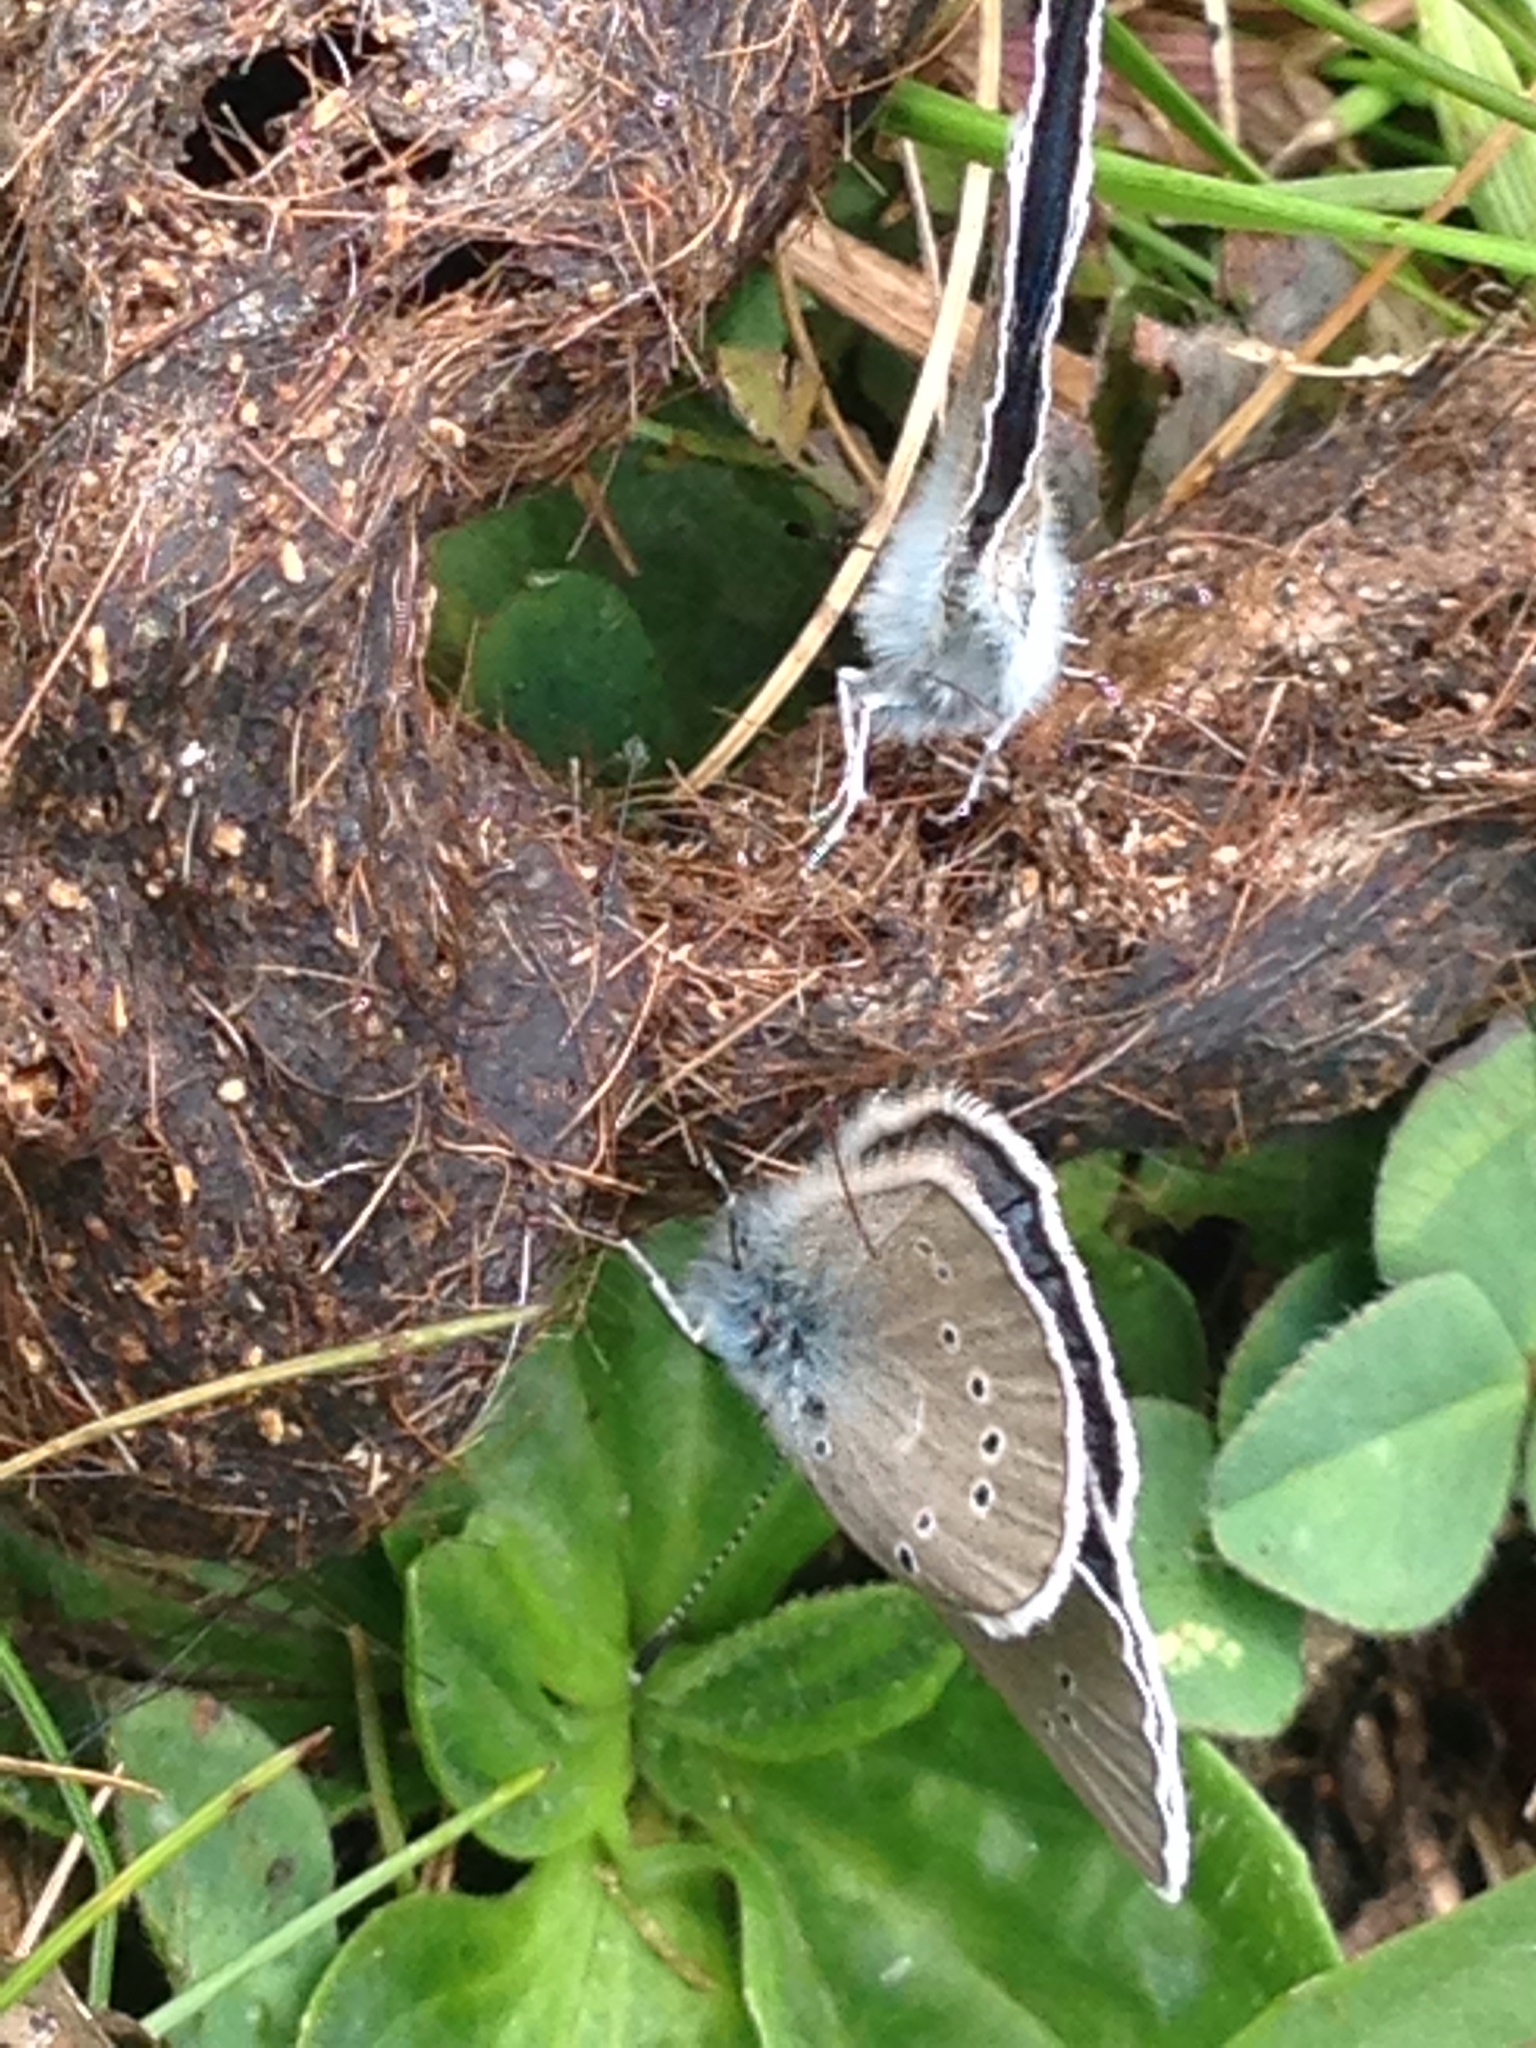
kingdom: Animalia
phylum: Arthropoda
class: Insecta
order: Lepidoptera
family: Lycaenidae
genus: Cyaniris
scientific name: Cyaniris semiargus
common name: Mazarine blue
